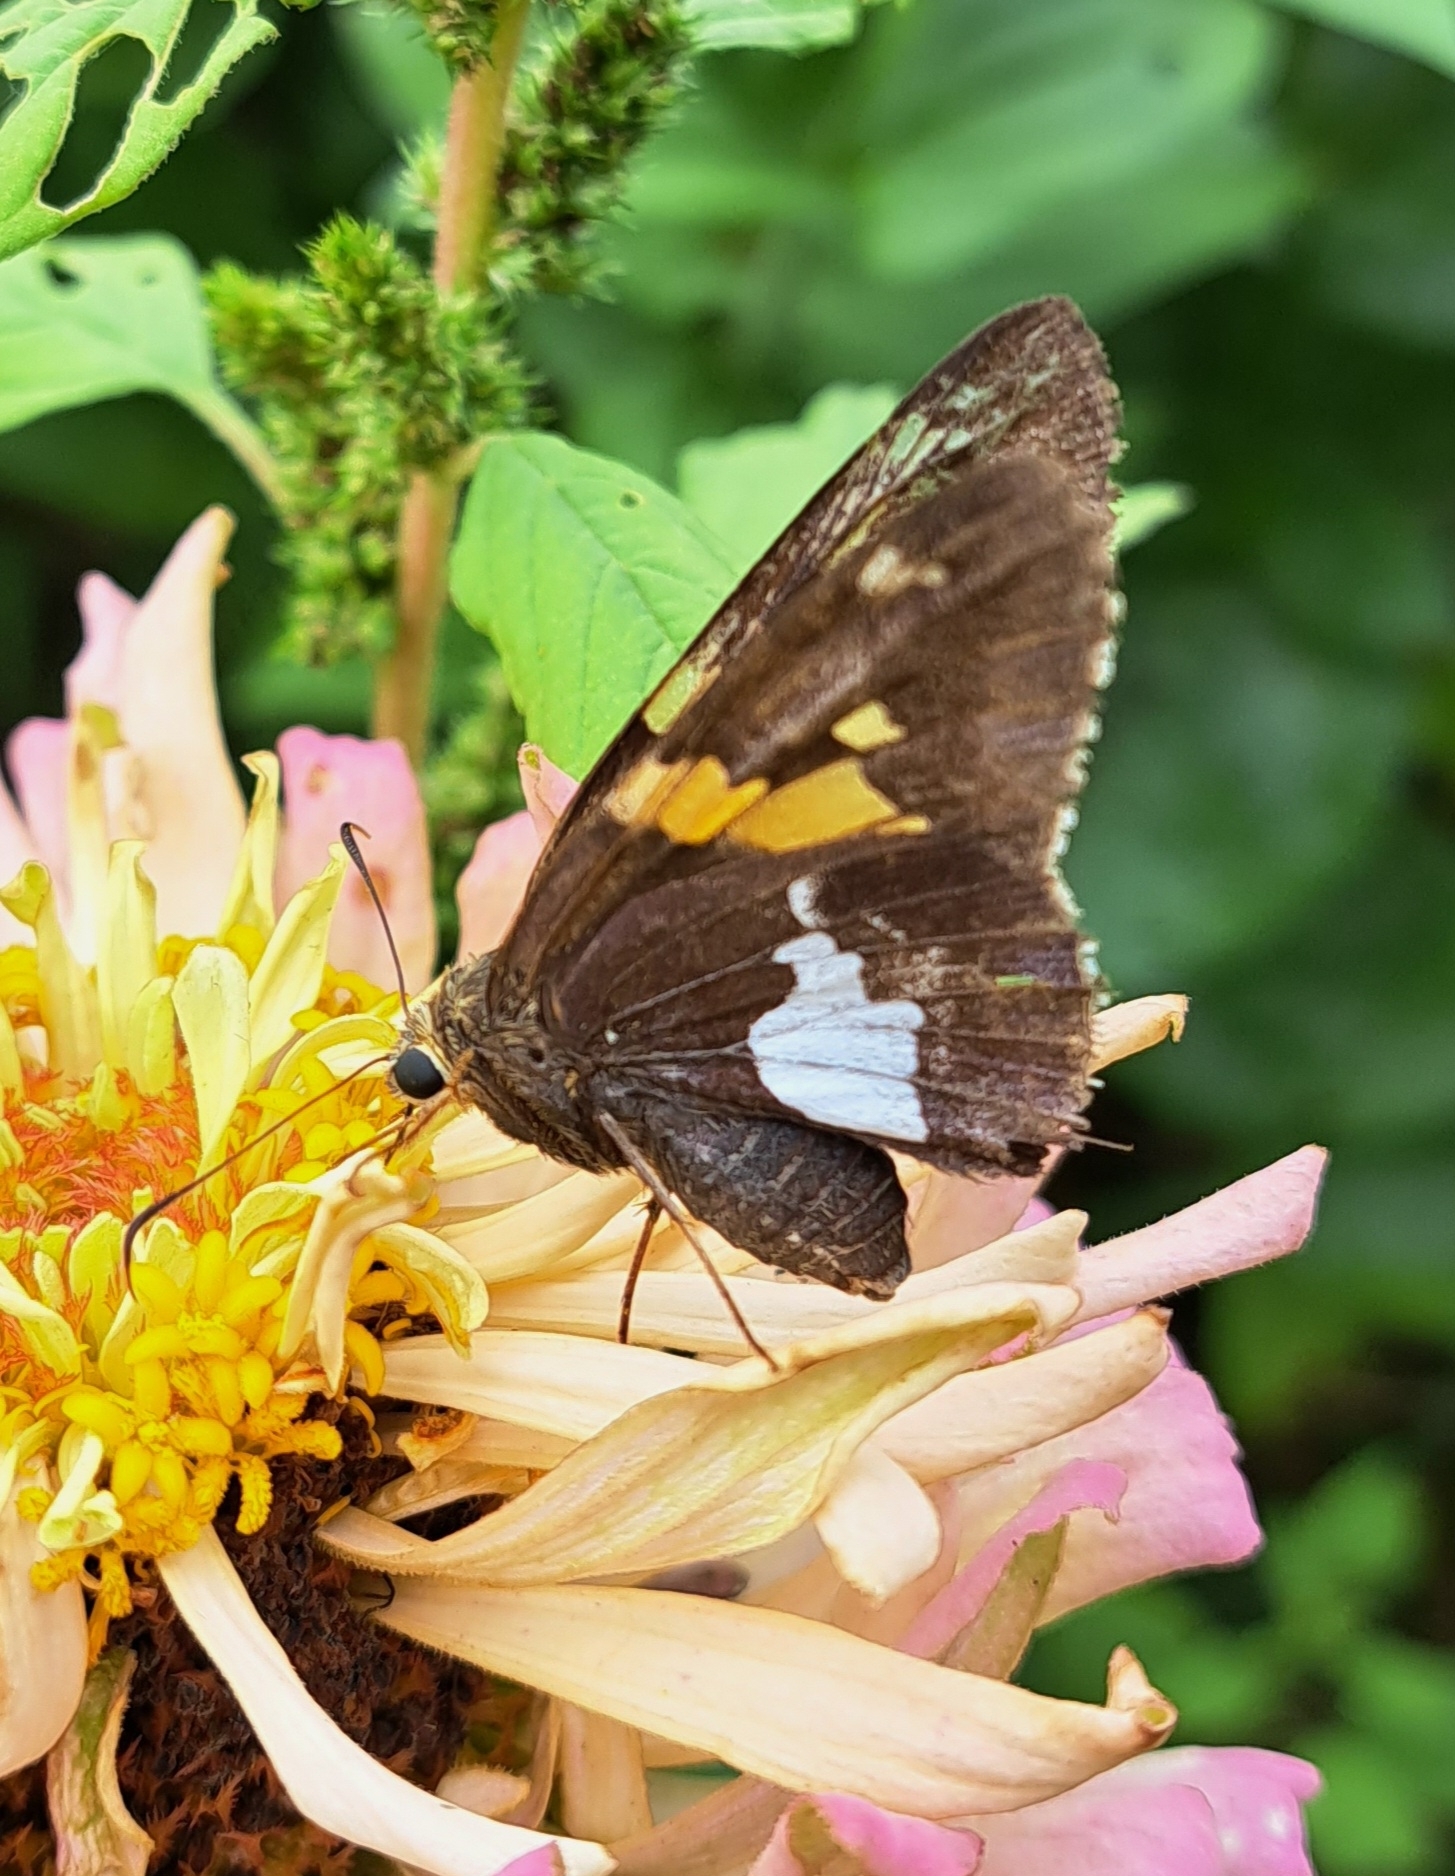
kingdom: Animalia
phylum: Arthropoda
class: Insecta
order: Lepidoptera
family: Hesperiidae
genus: Epargyreus
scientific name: Epargyreus clarus
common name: Silver-spotted skipper
